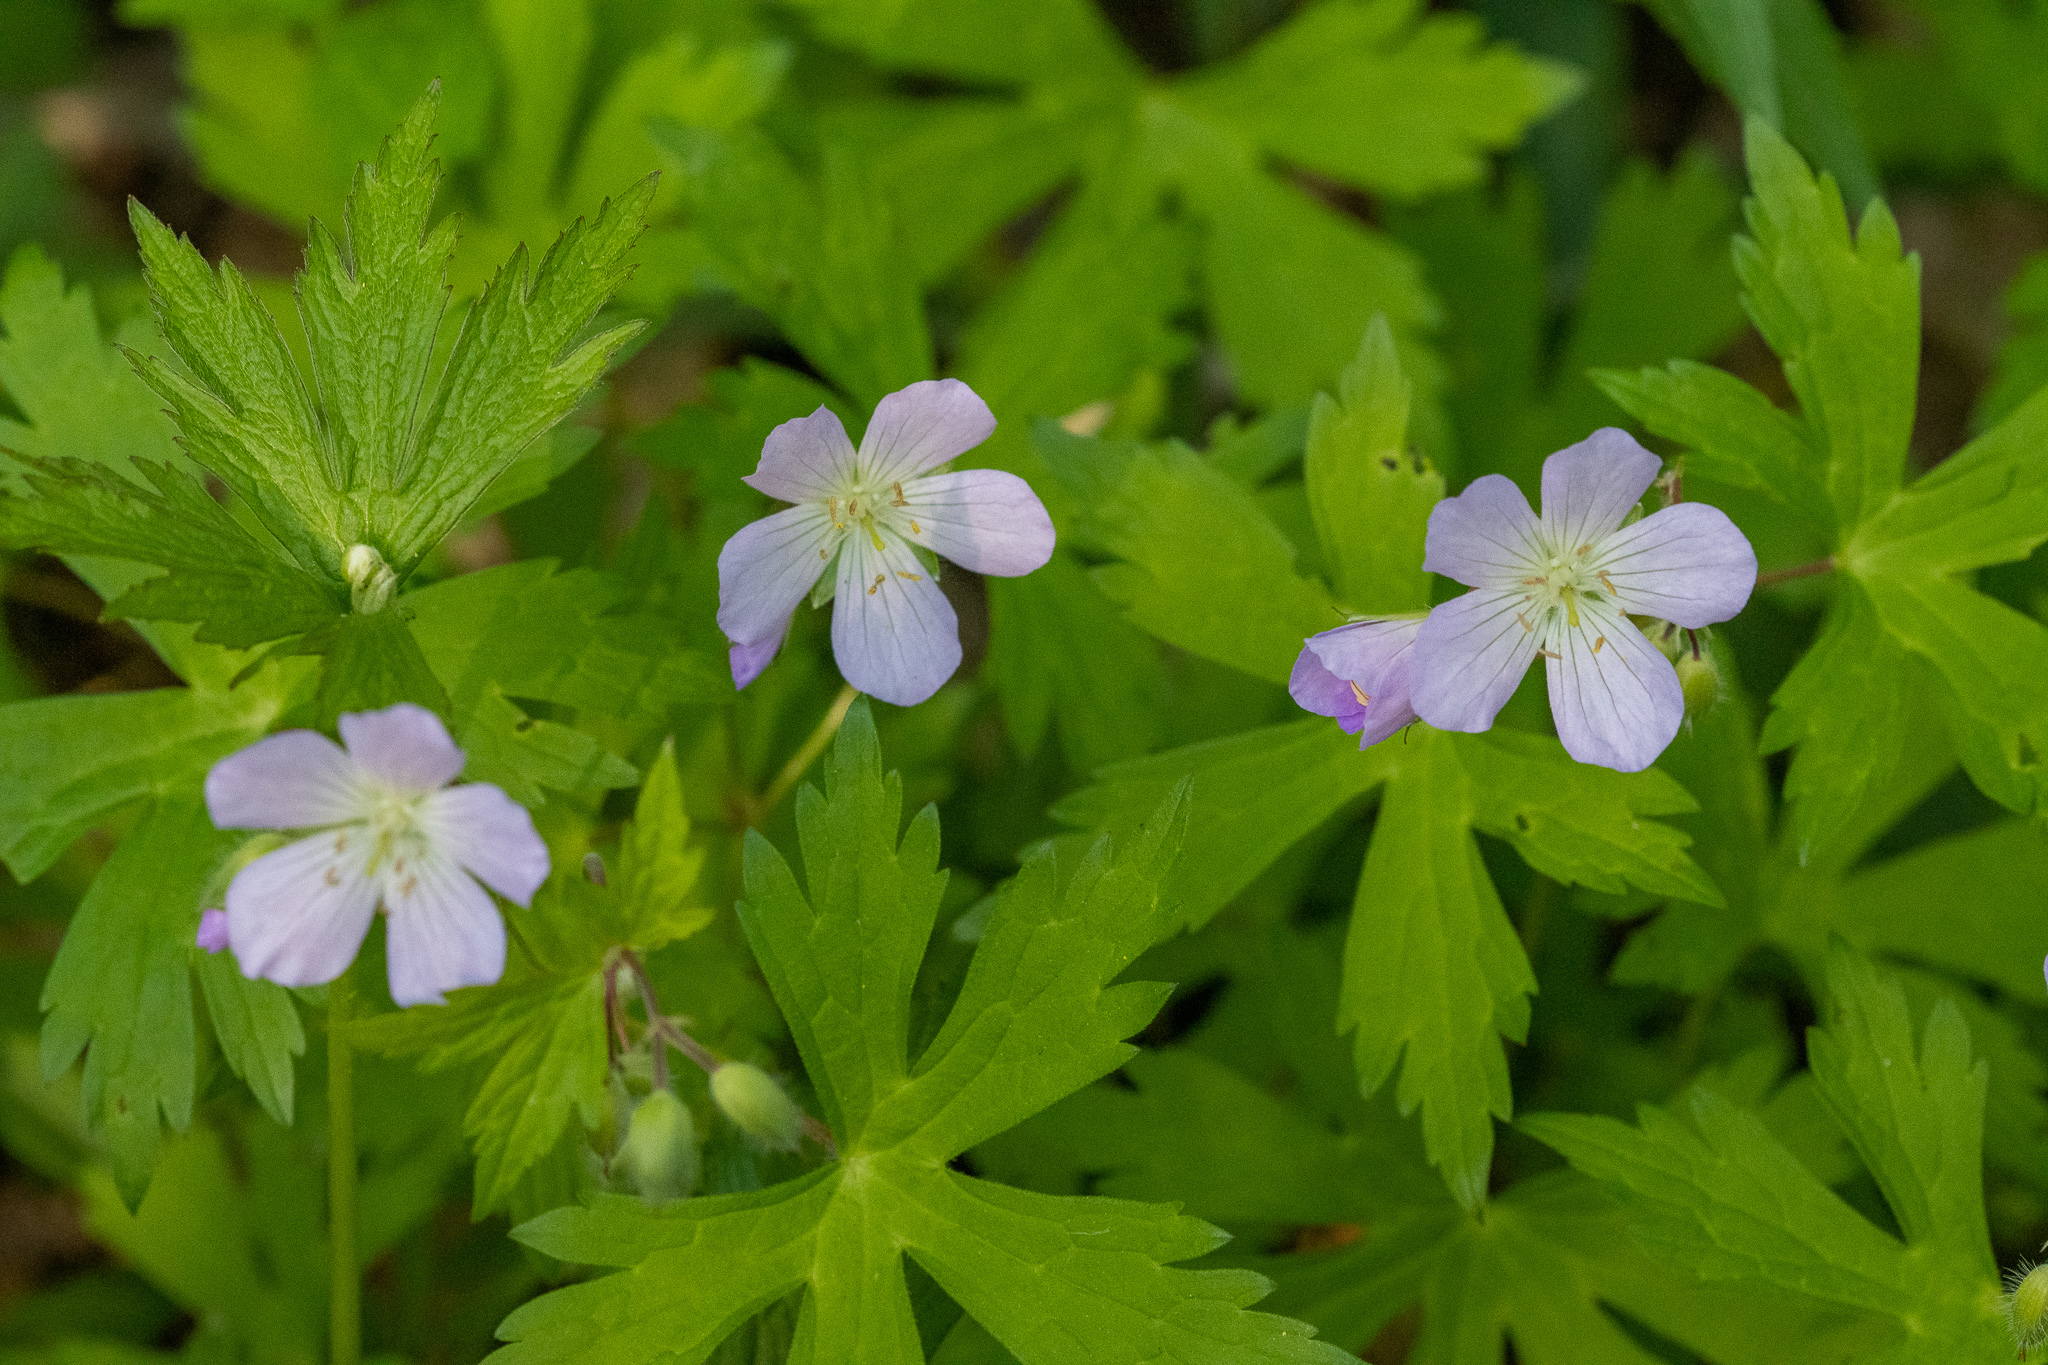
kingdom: Plantae
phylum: Tracheophyta
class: Magnoliopsida
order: Geraniales
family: Geraniaceae
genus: Geranium
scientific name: Geranium maculatum
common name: Spotted geranium
